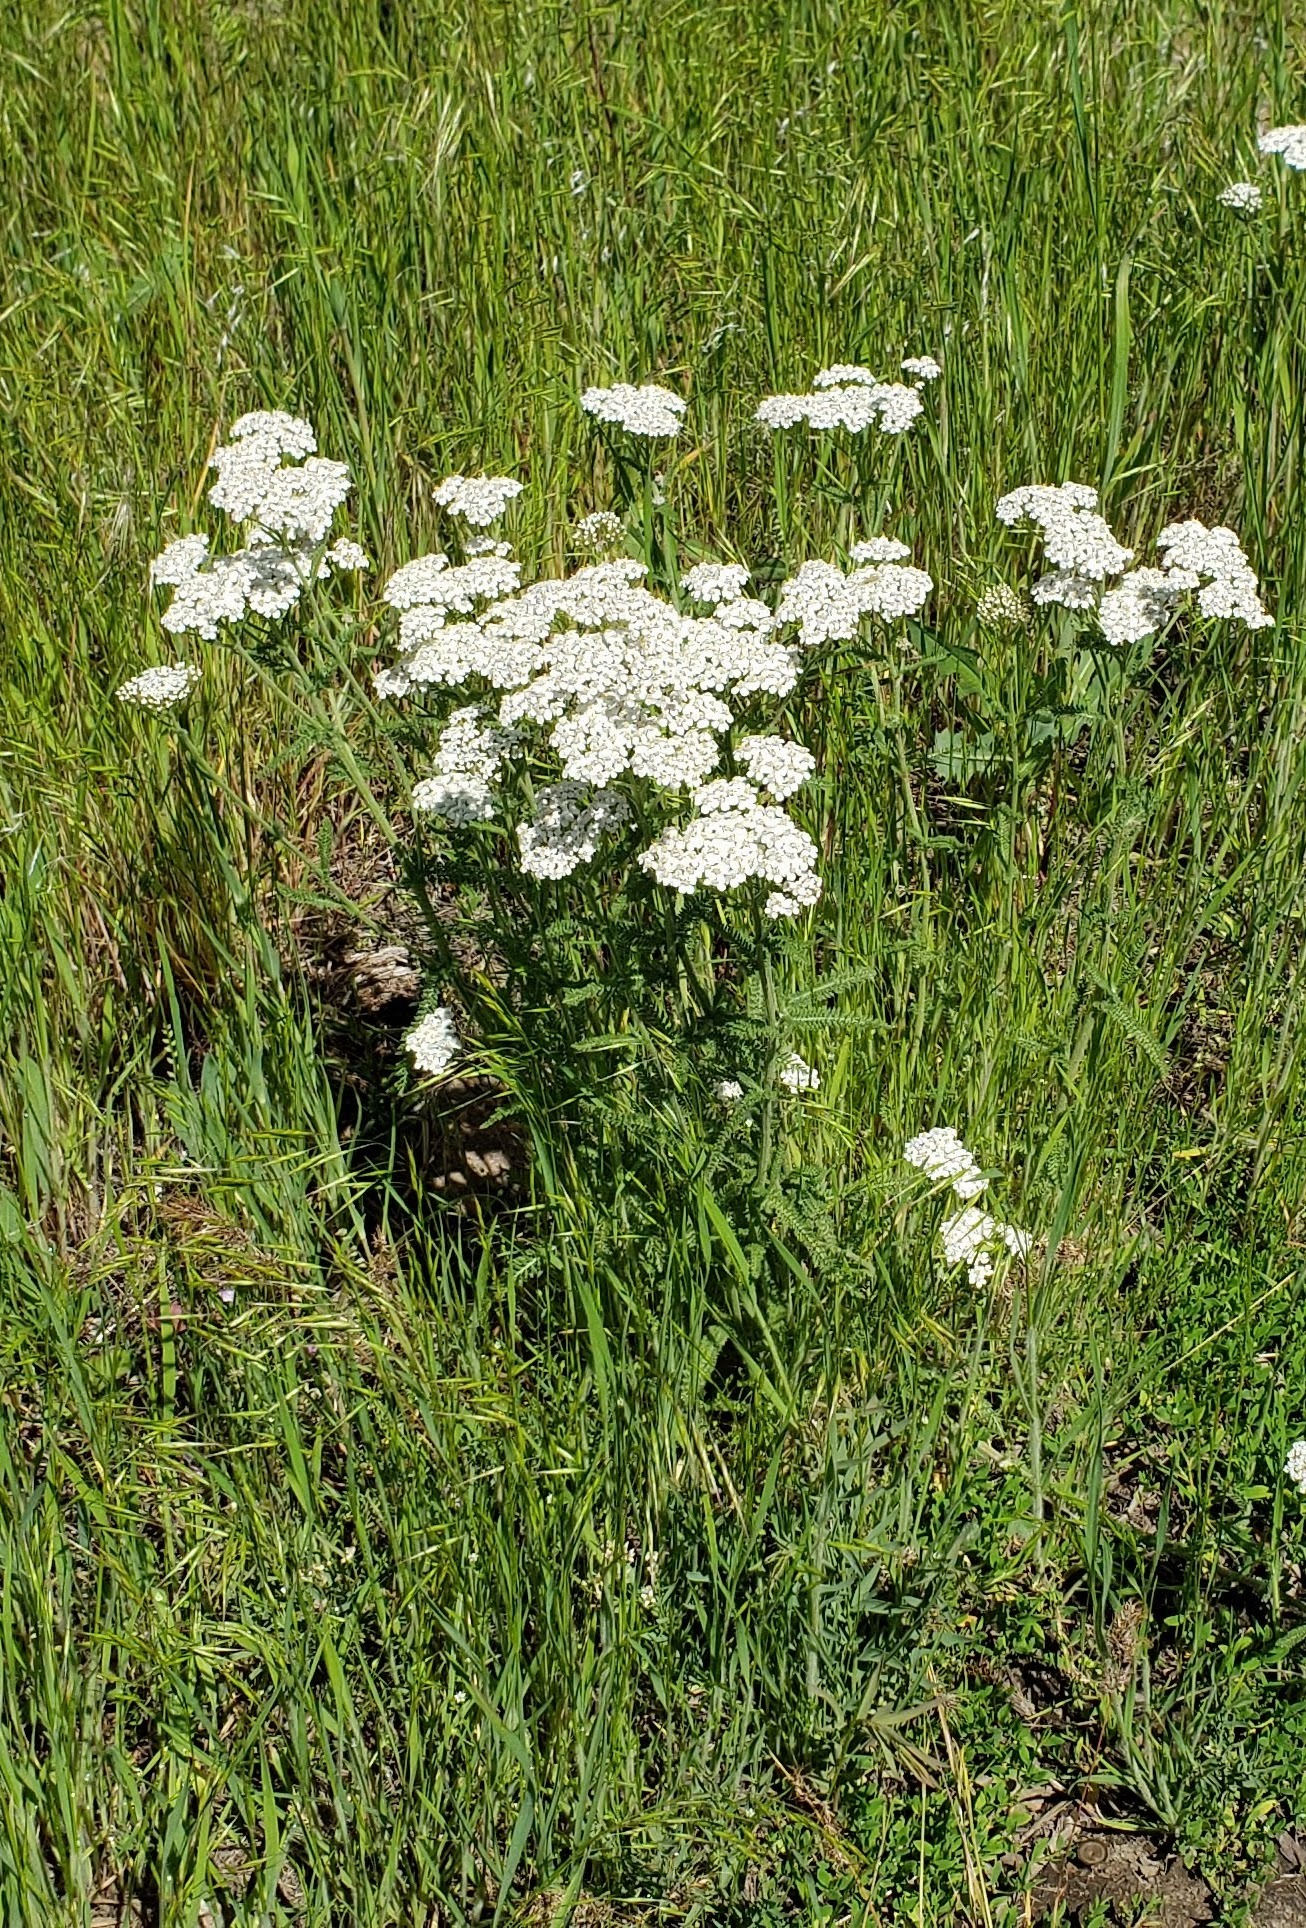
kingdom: Plantae
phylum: Tracheophyta
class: Magnoliopsida
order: Asterales
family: Asteraceae
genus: Achillea
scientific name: Achillea millefolium
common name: Yarrow
